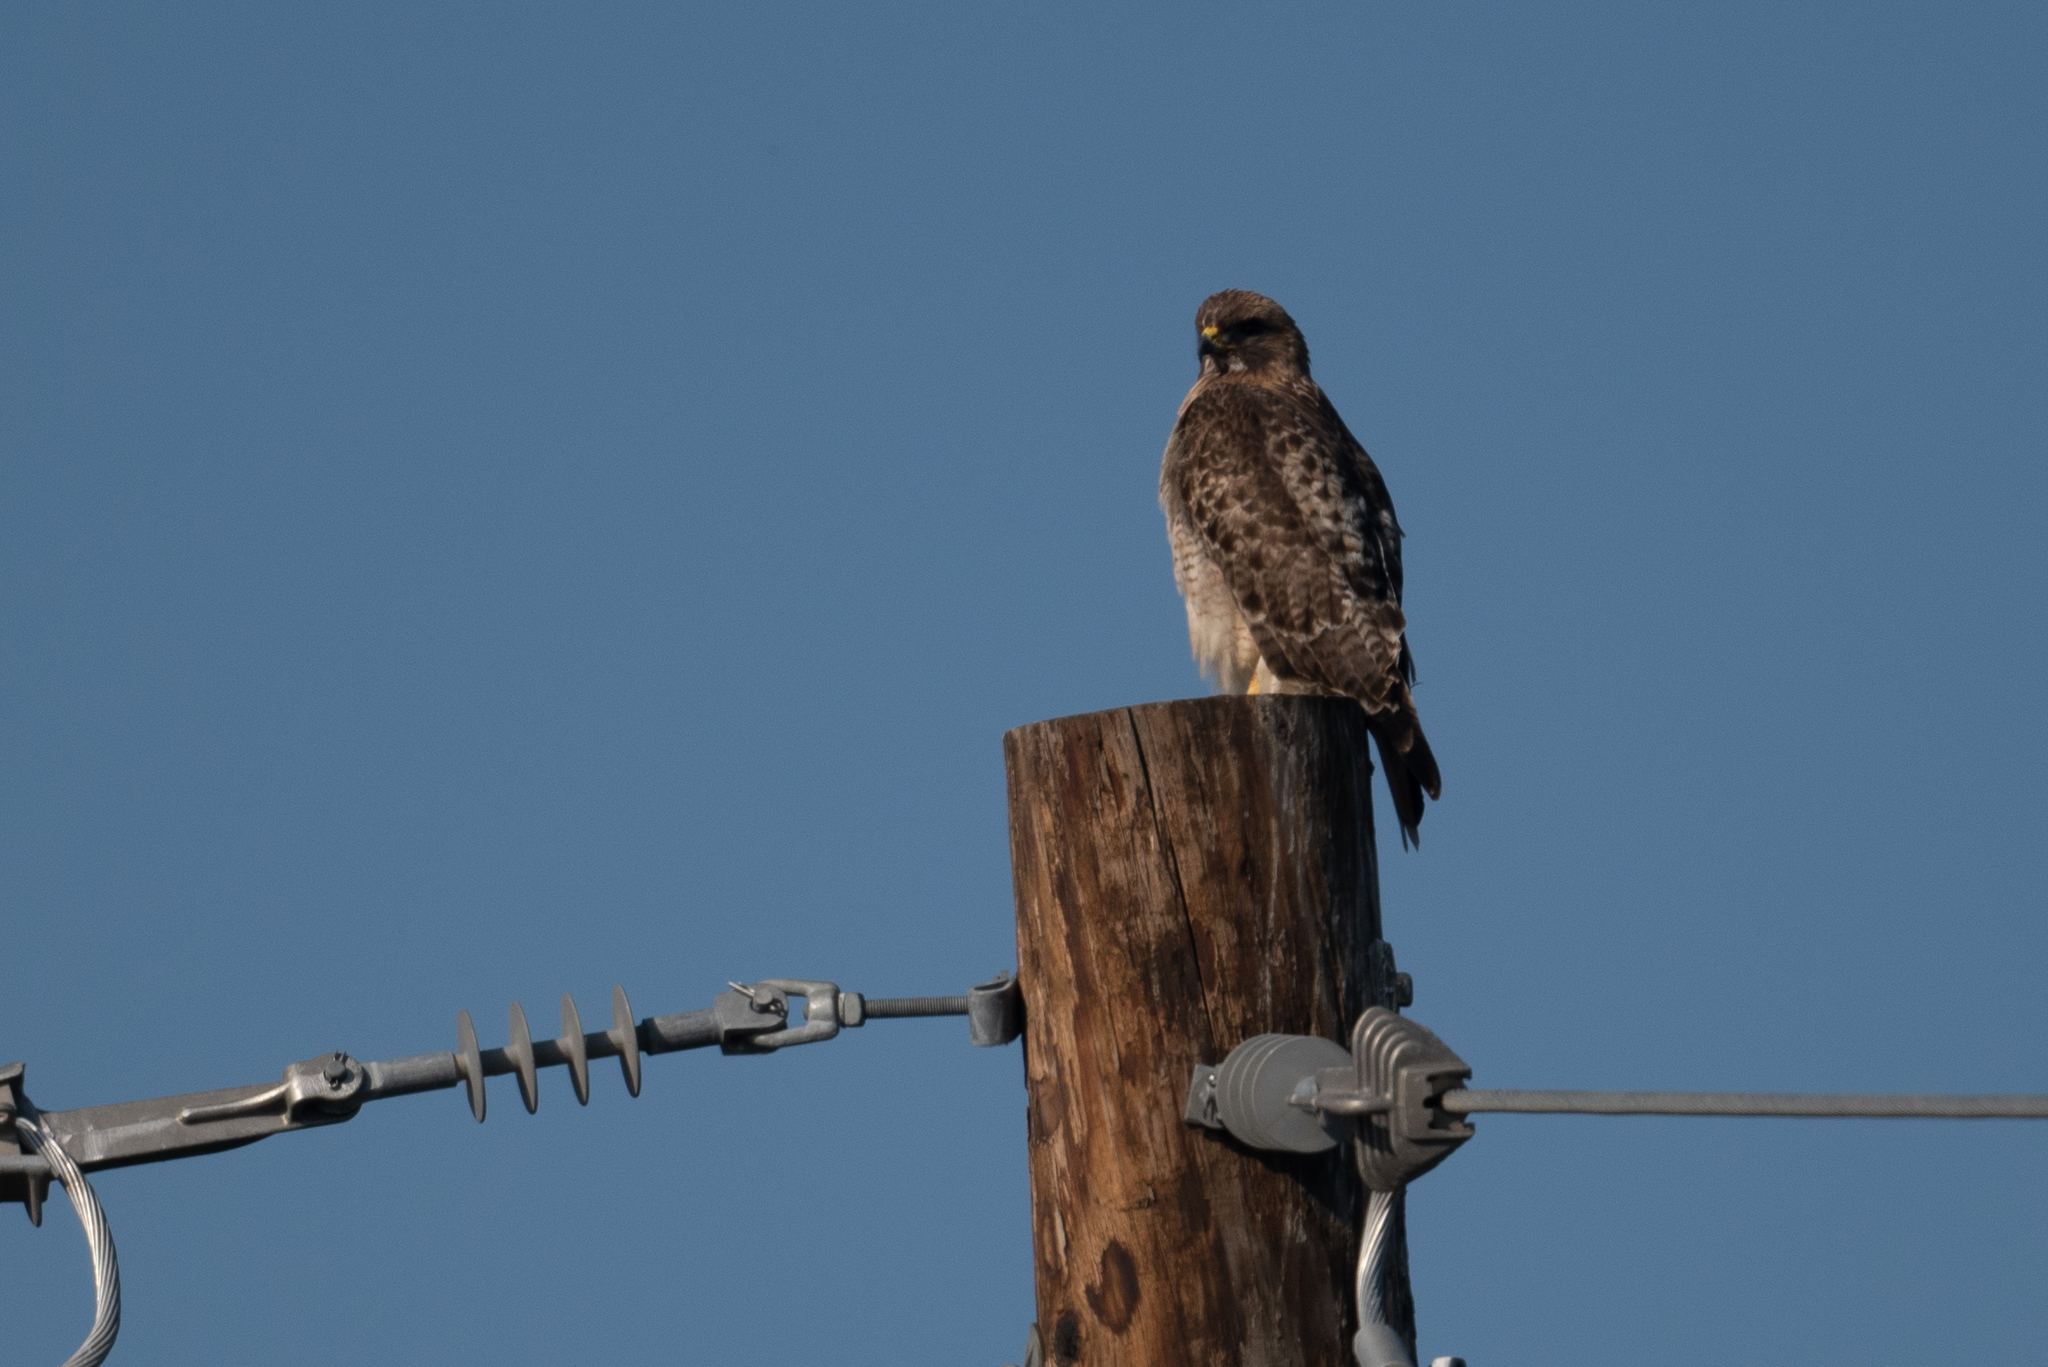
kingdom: Animalia
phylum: Chordata
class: Aves
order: Accipitriformes
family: Accipitridae
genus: Buteo
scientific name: Buteo jamaicensis
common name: Red-tailed hawk
